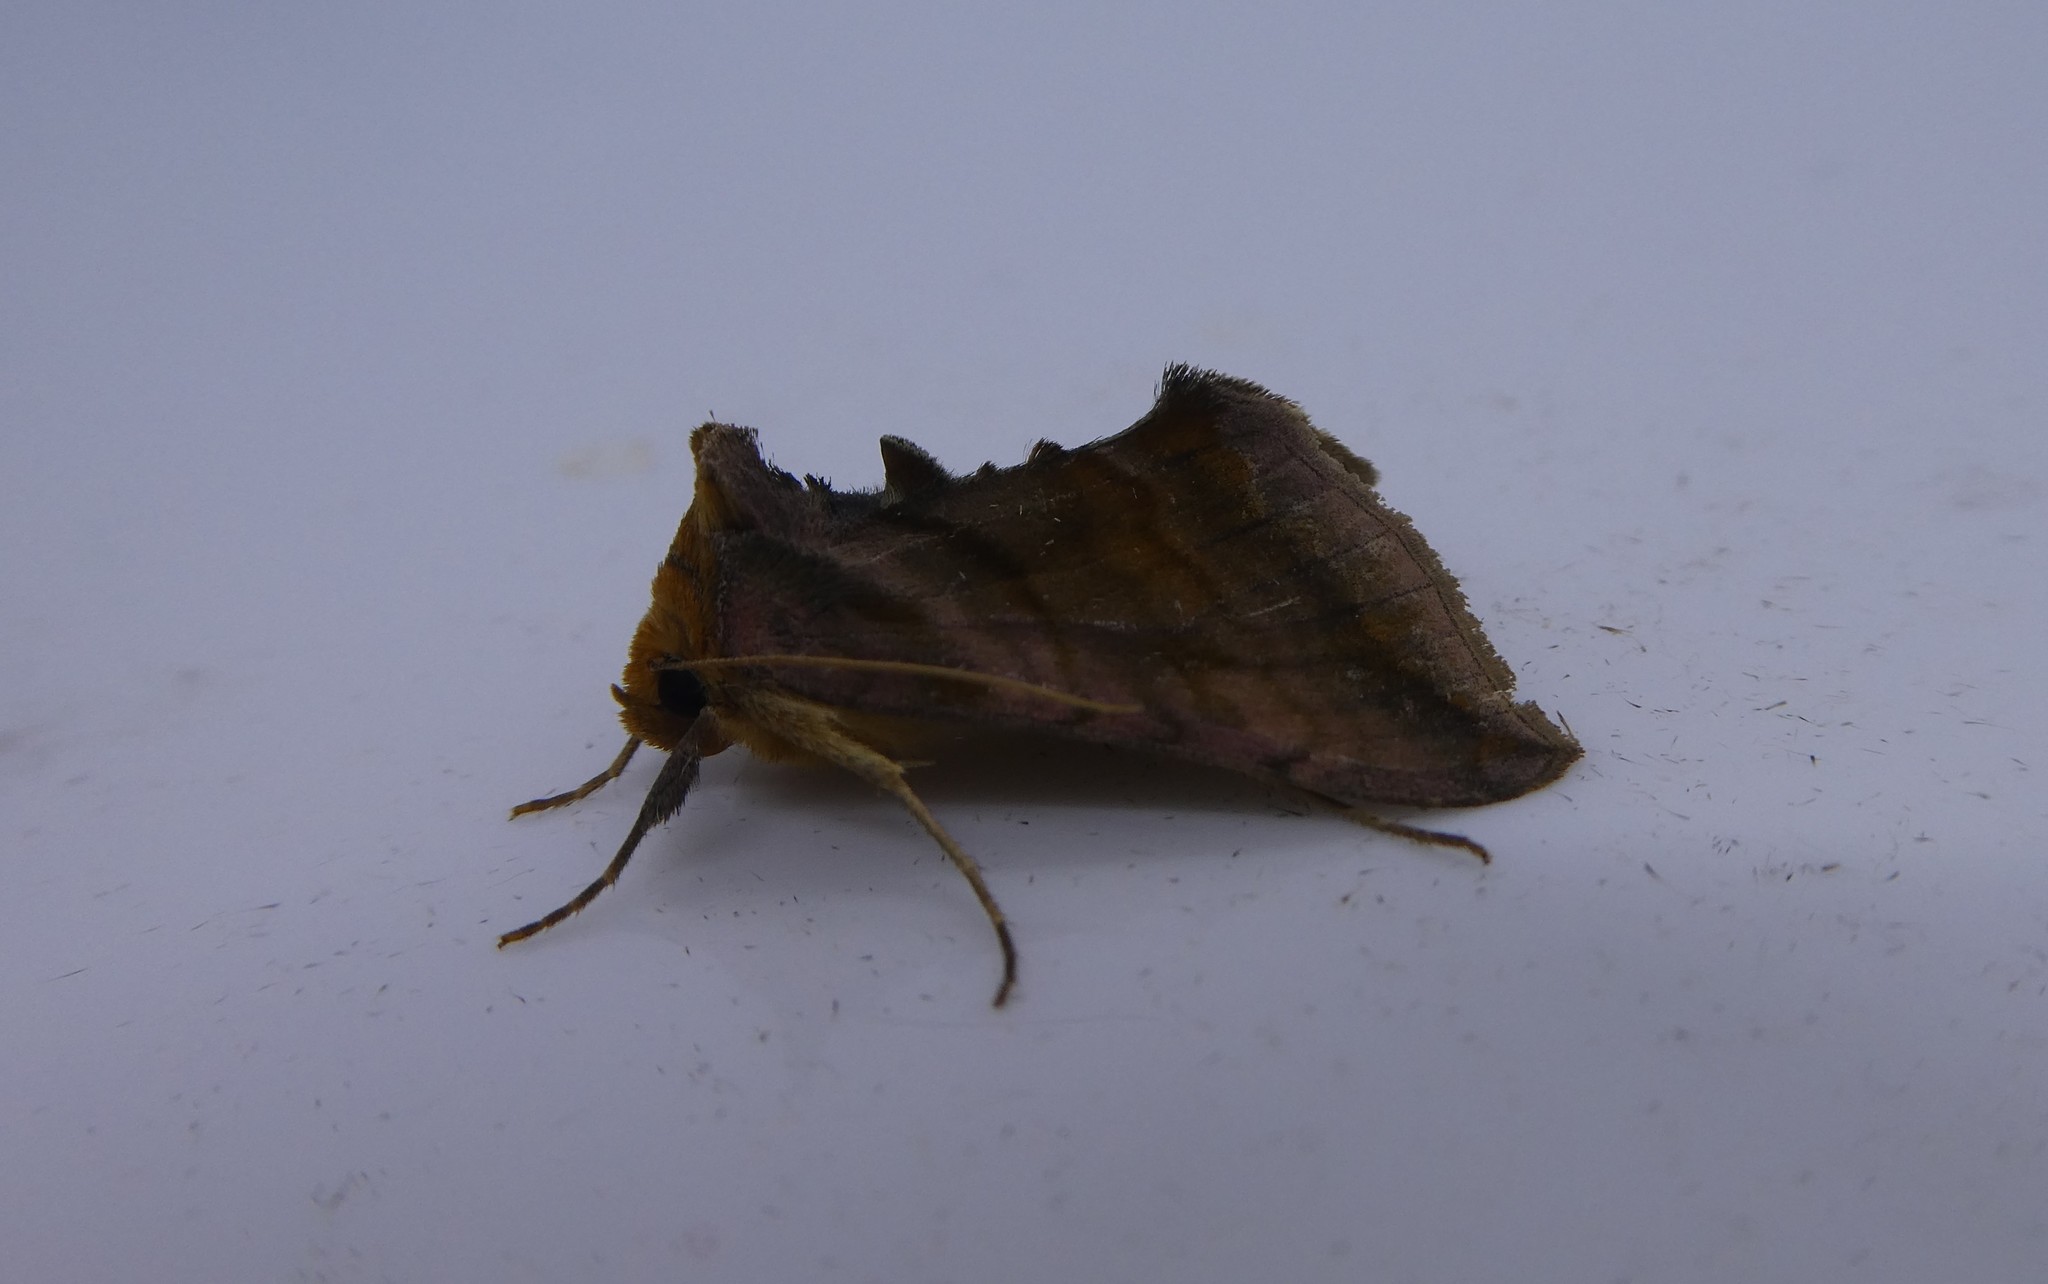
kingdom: Animalia
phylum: Arthropoda
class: Insecta
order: Lepidoptera
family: Noctuidae
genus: Allagrapha
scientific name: Allagrapha aerea
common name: Unspotted looper moth
